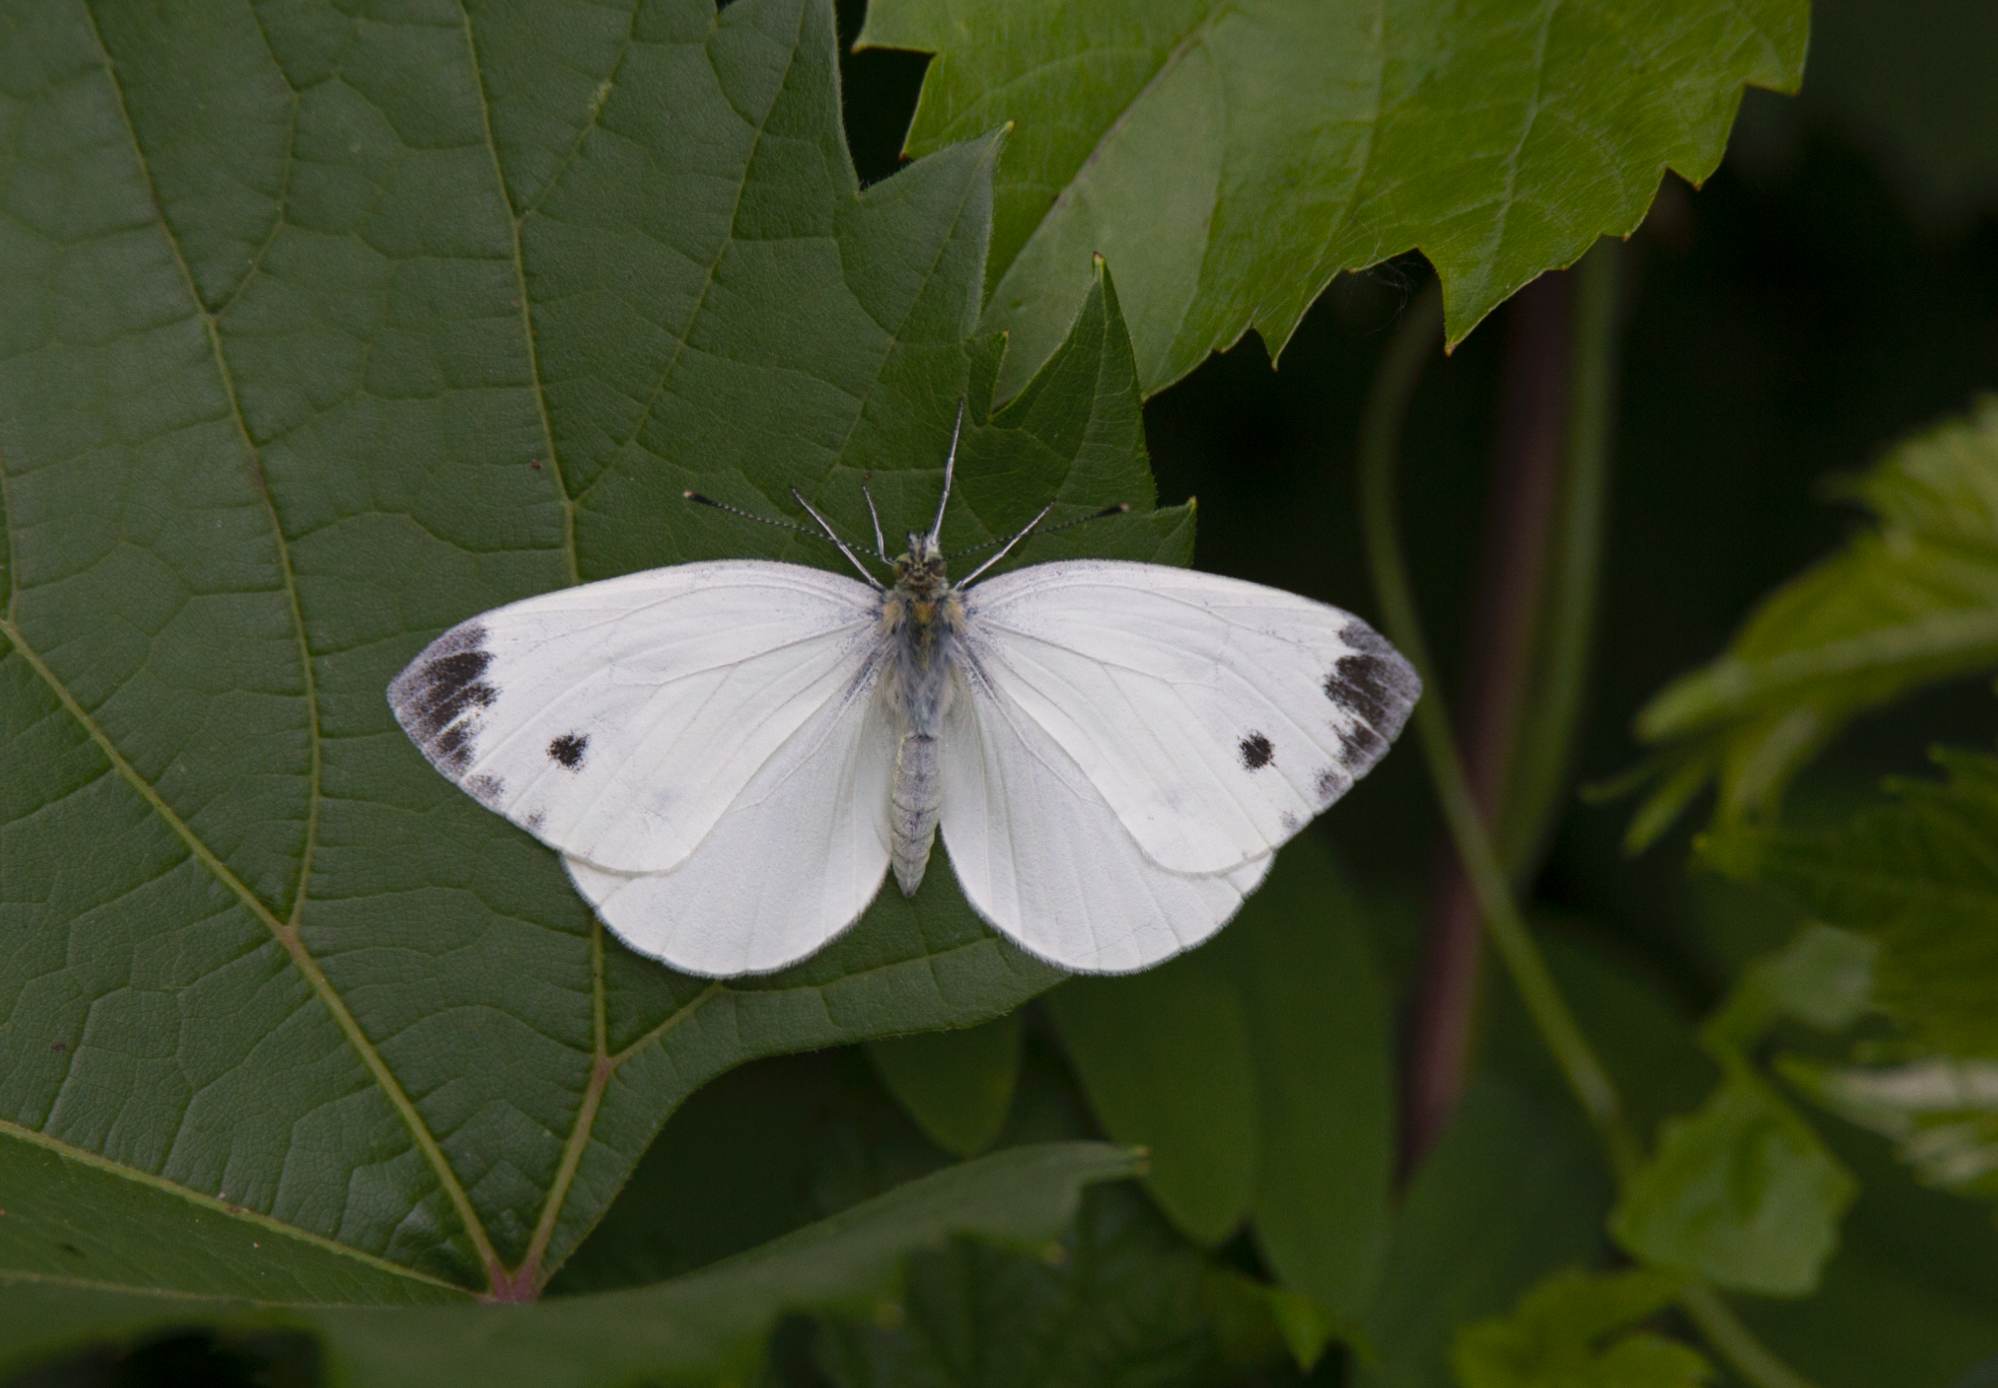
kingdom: Animalia
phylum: Arthropoda
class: Insecta
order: Lepidoptera
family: Pieridae
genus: Pieris
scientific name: Pieris napi
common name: Green-veined white
